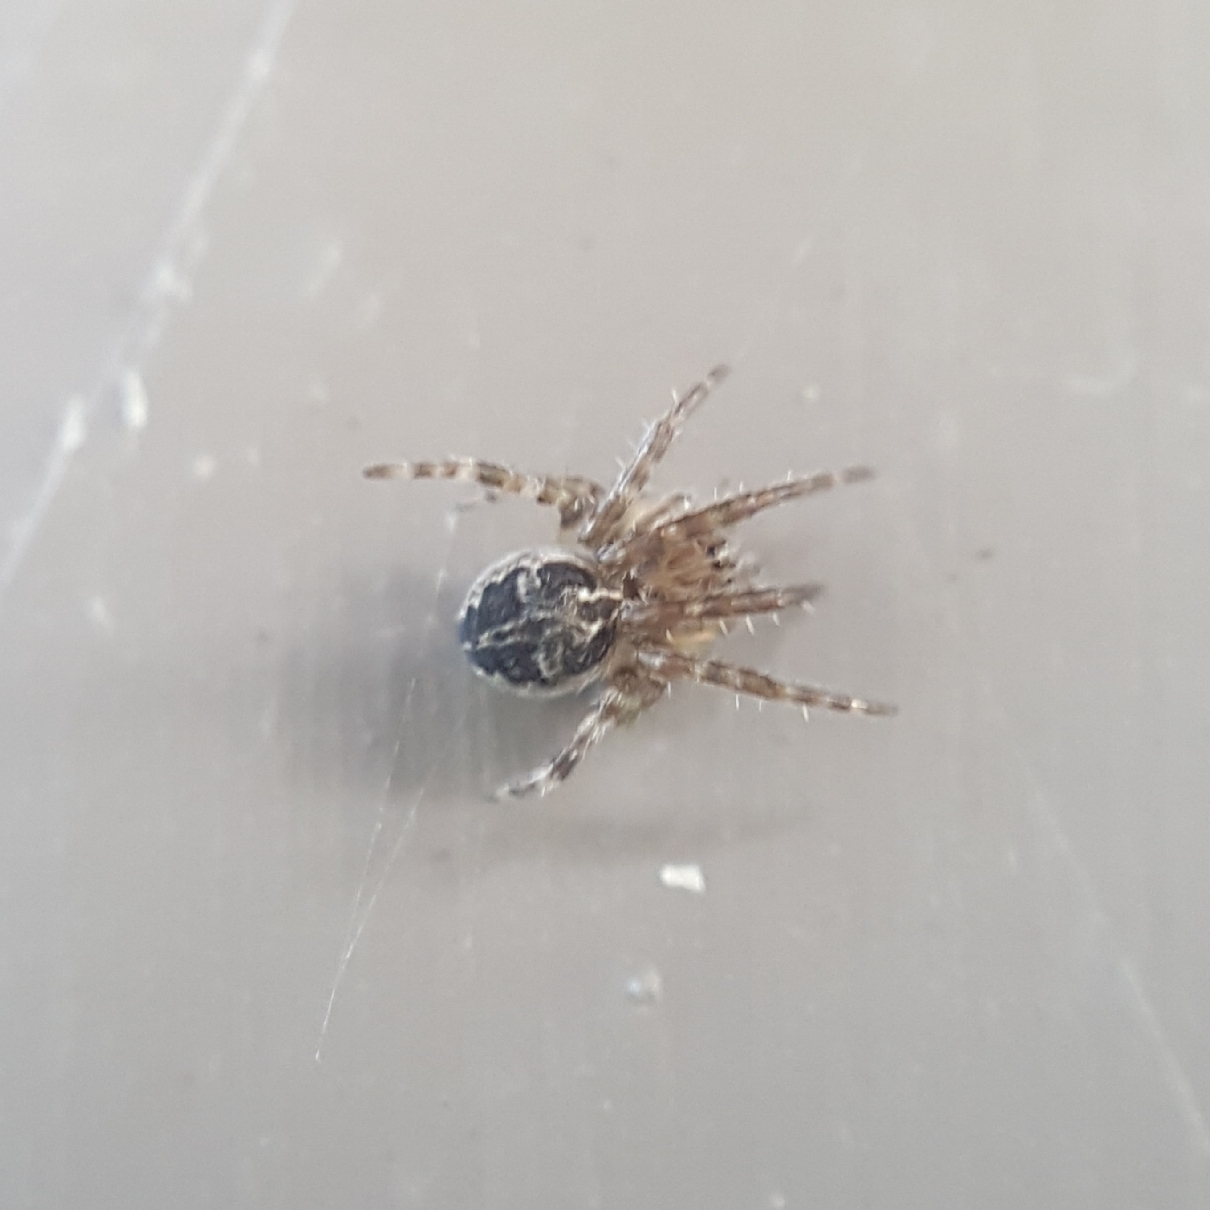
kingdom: Animalia
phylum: Arthropoda
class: Arachnida
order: Araneae
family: Araneidae
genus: Larinioides
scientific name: Larinioides sclopetarius
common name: Bridge orbweaver
